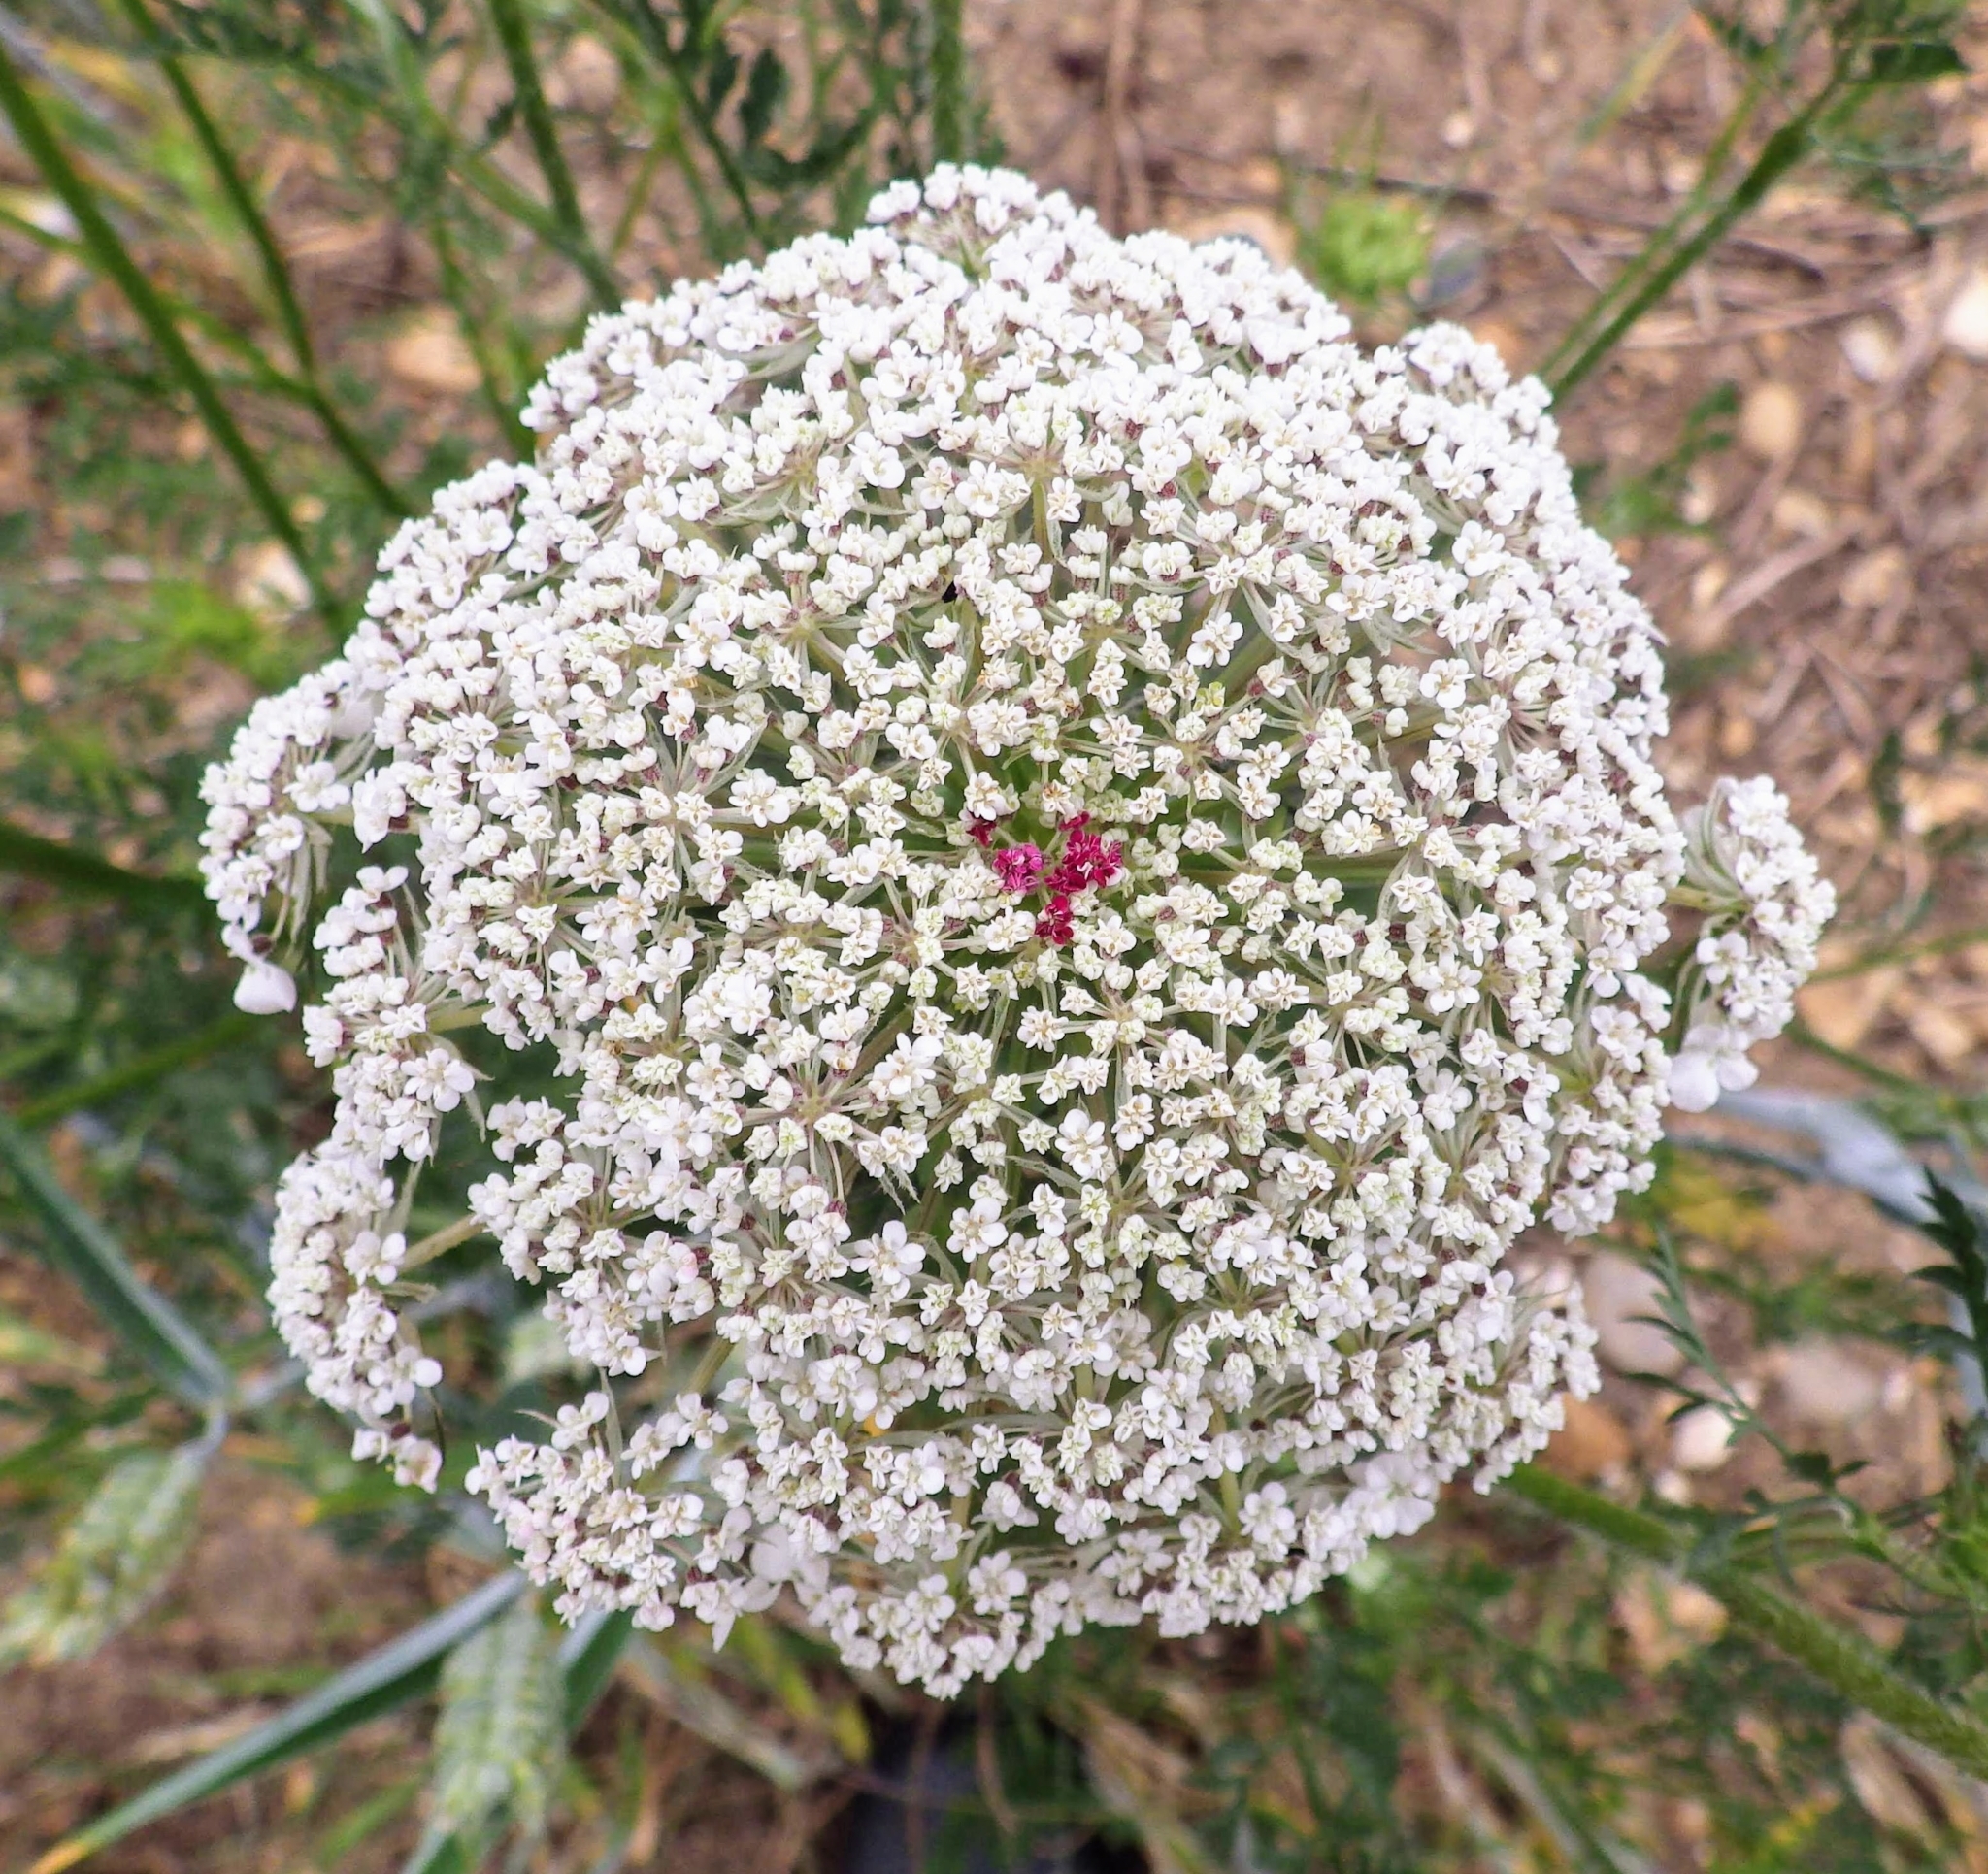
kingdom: Plantae
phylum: Tracheophyta
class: Magnoliopsida
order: Apiales
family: Apiaceae
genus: Daucus
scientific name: Daucus carota
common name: Wild carrot
